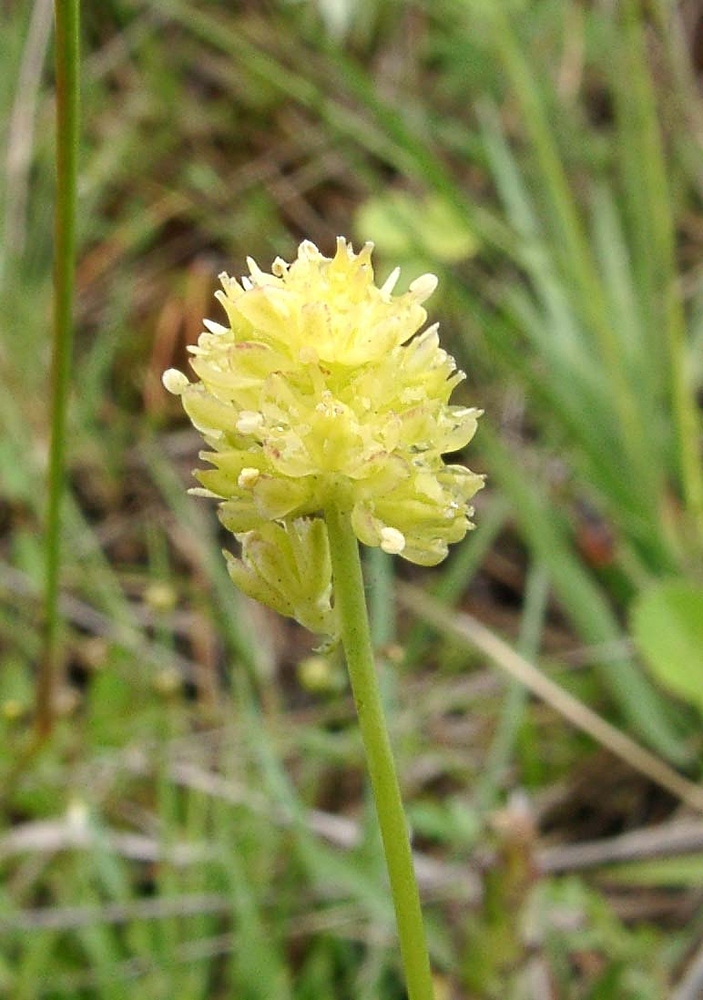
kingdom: Plantae
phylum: Tracheophyta
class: Liliopsida
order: Alismatales
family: Tofieldiaceae
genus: Tofieldia
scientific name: Tofieldia calyculata
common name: German-asphodel
